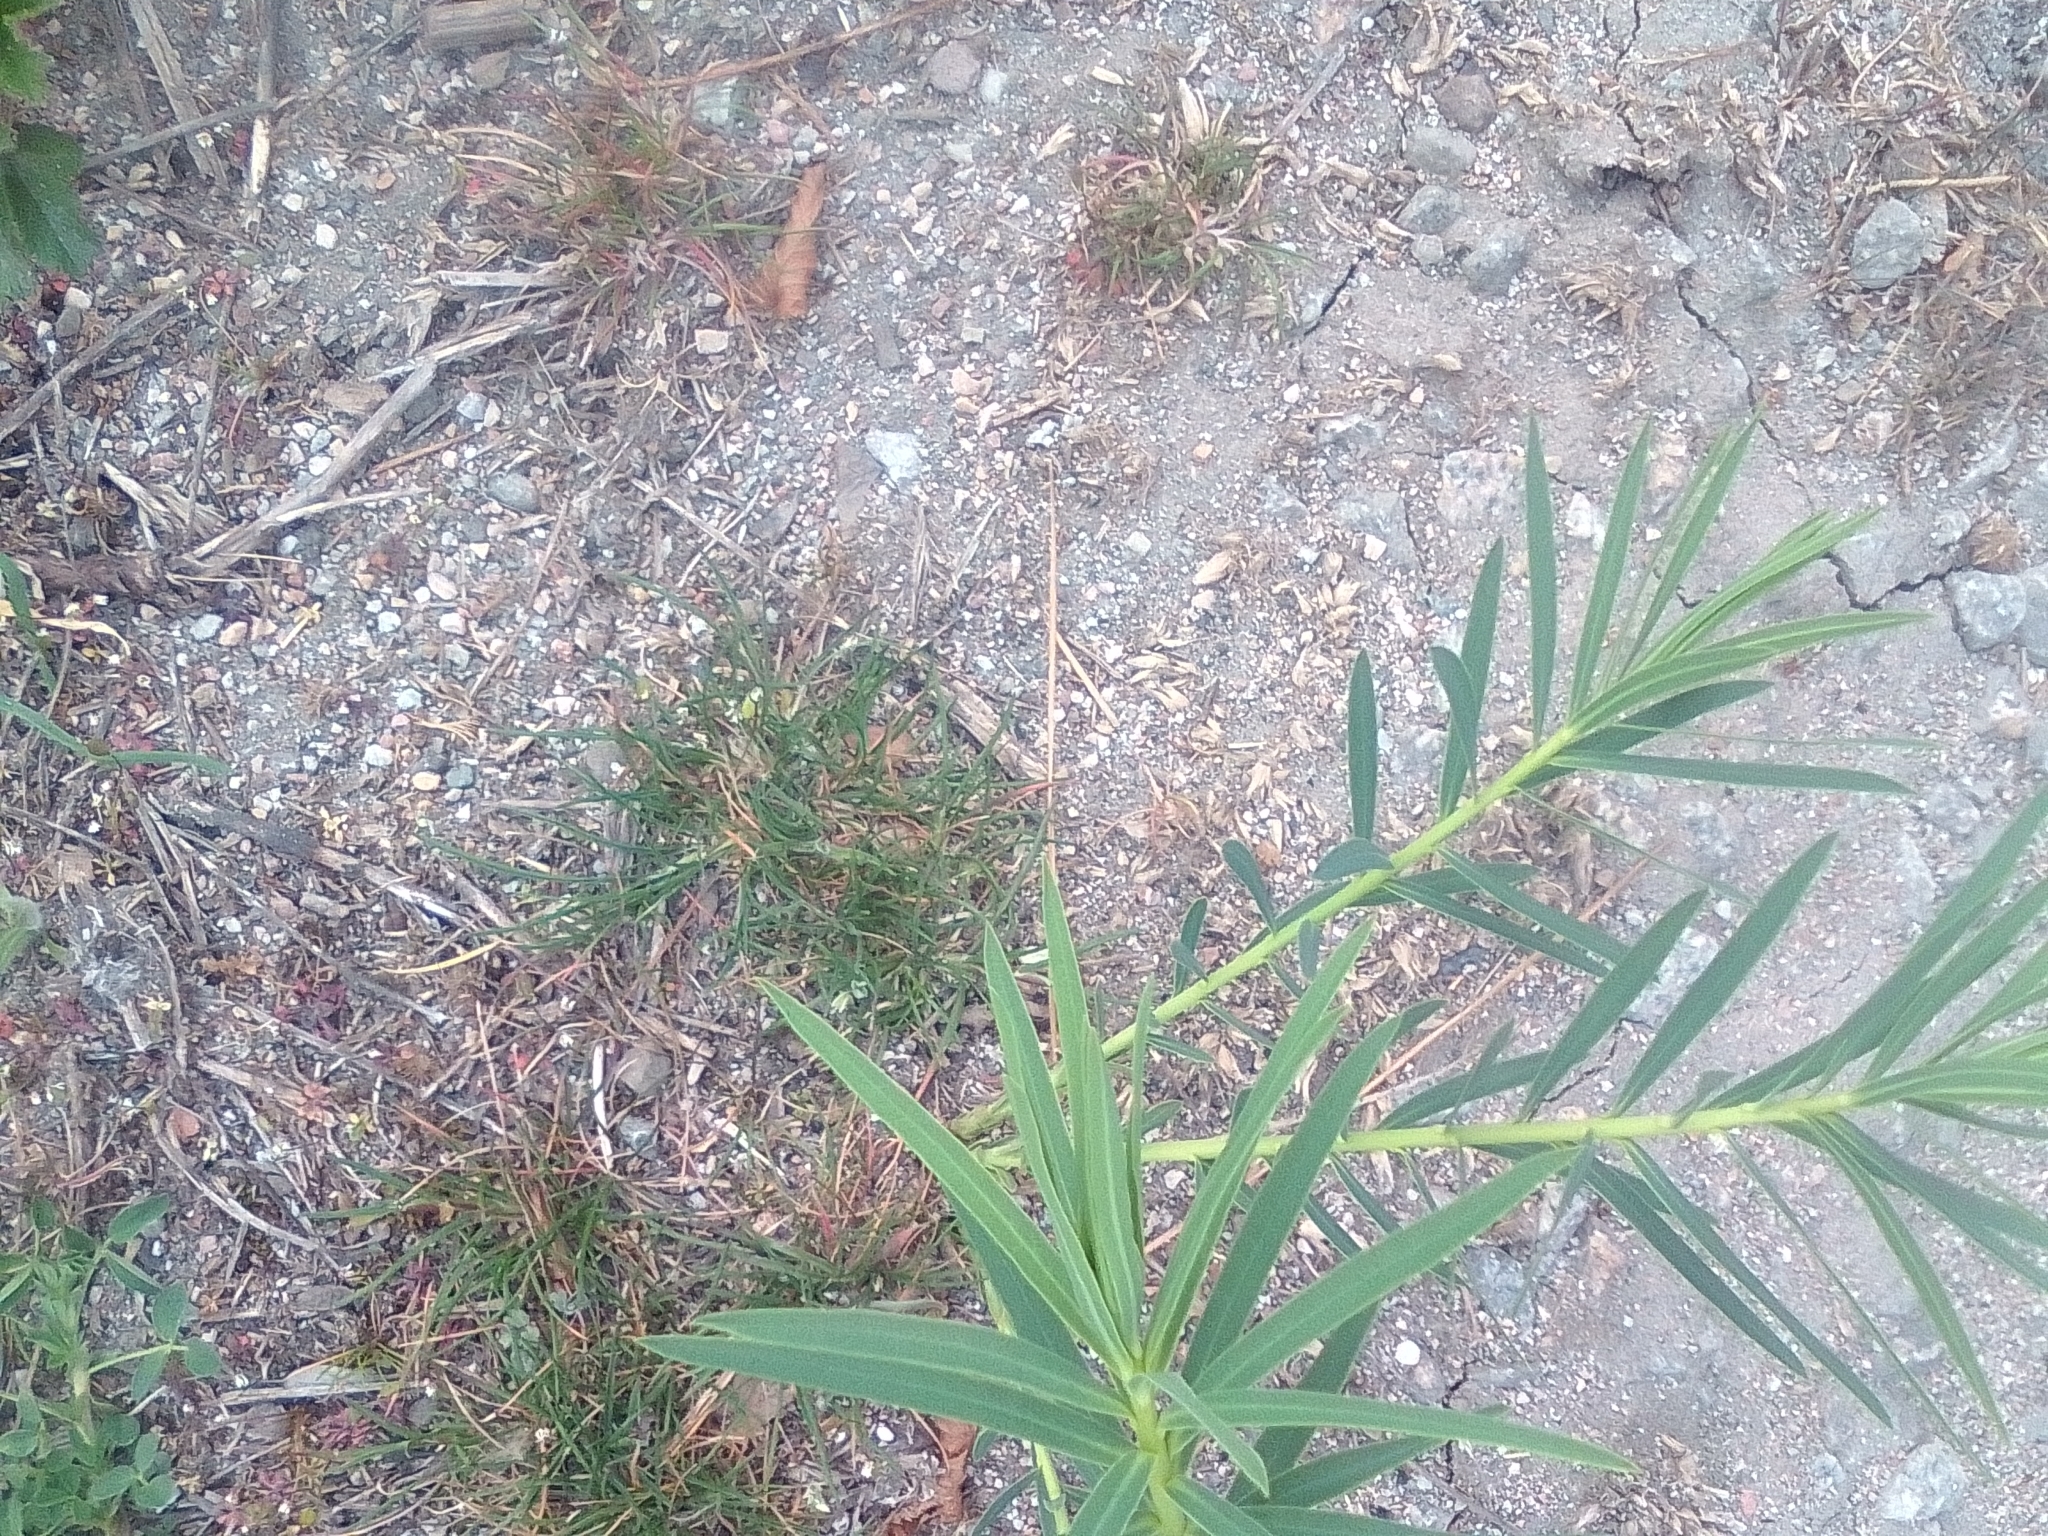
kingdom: Plantae
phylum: Tracheophyta
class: Magnoliopsida
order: Malpighiales
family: Euphorbiaceae
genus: Euphorbia
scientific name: Euphorbia virgata
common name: Leafy spurge
